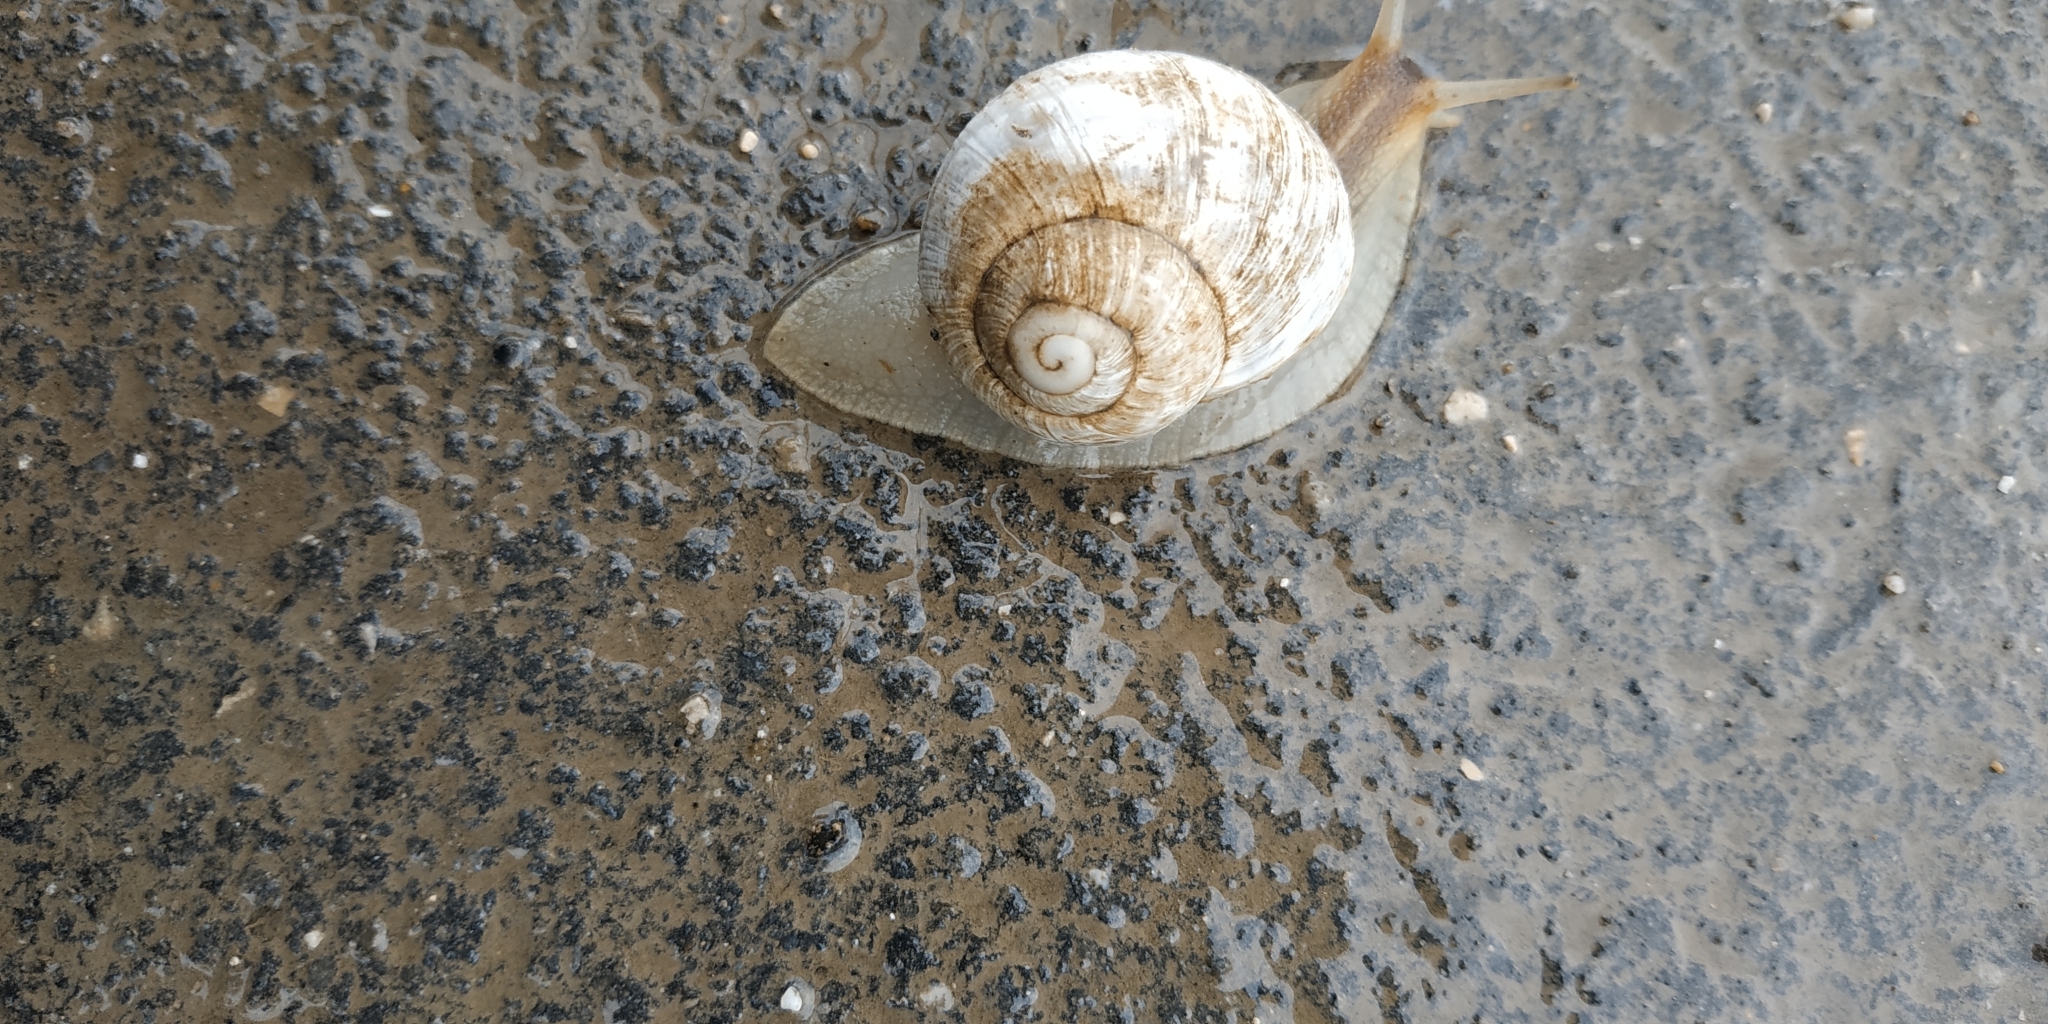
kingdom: Animalia
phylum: Mollusca
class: Gastropoda
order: Stylommatophora
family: Helicidae
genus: Helix
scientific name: Helix albescens
